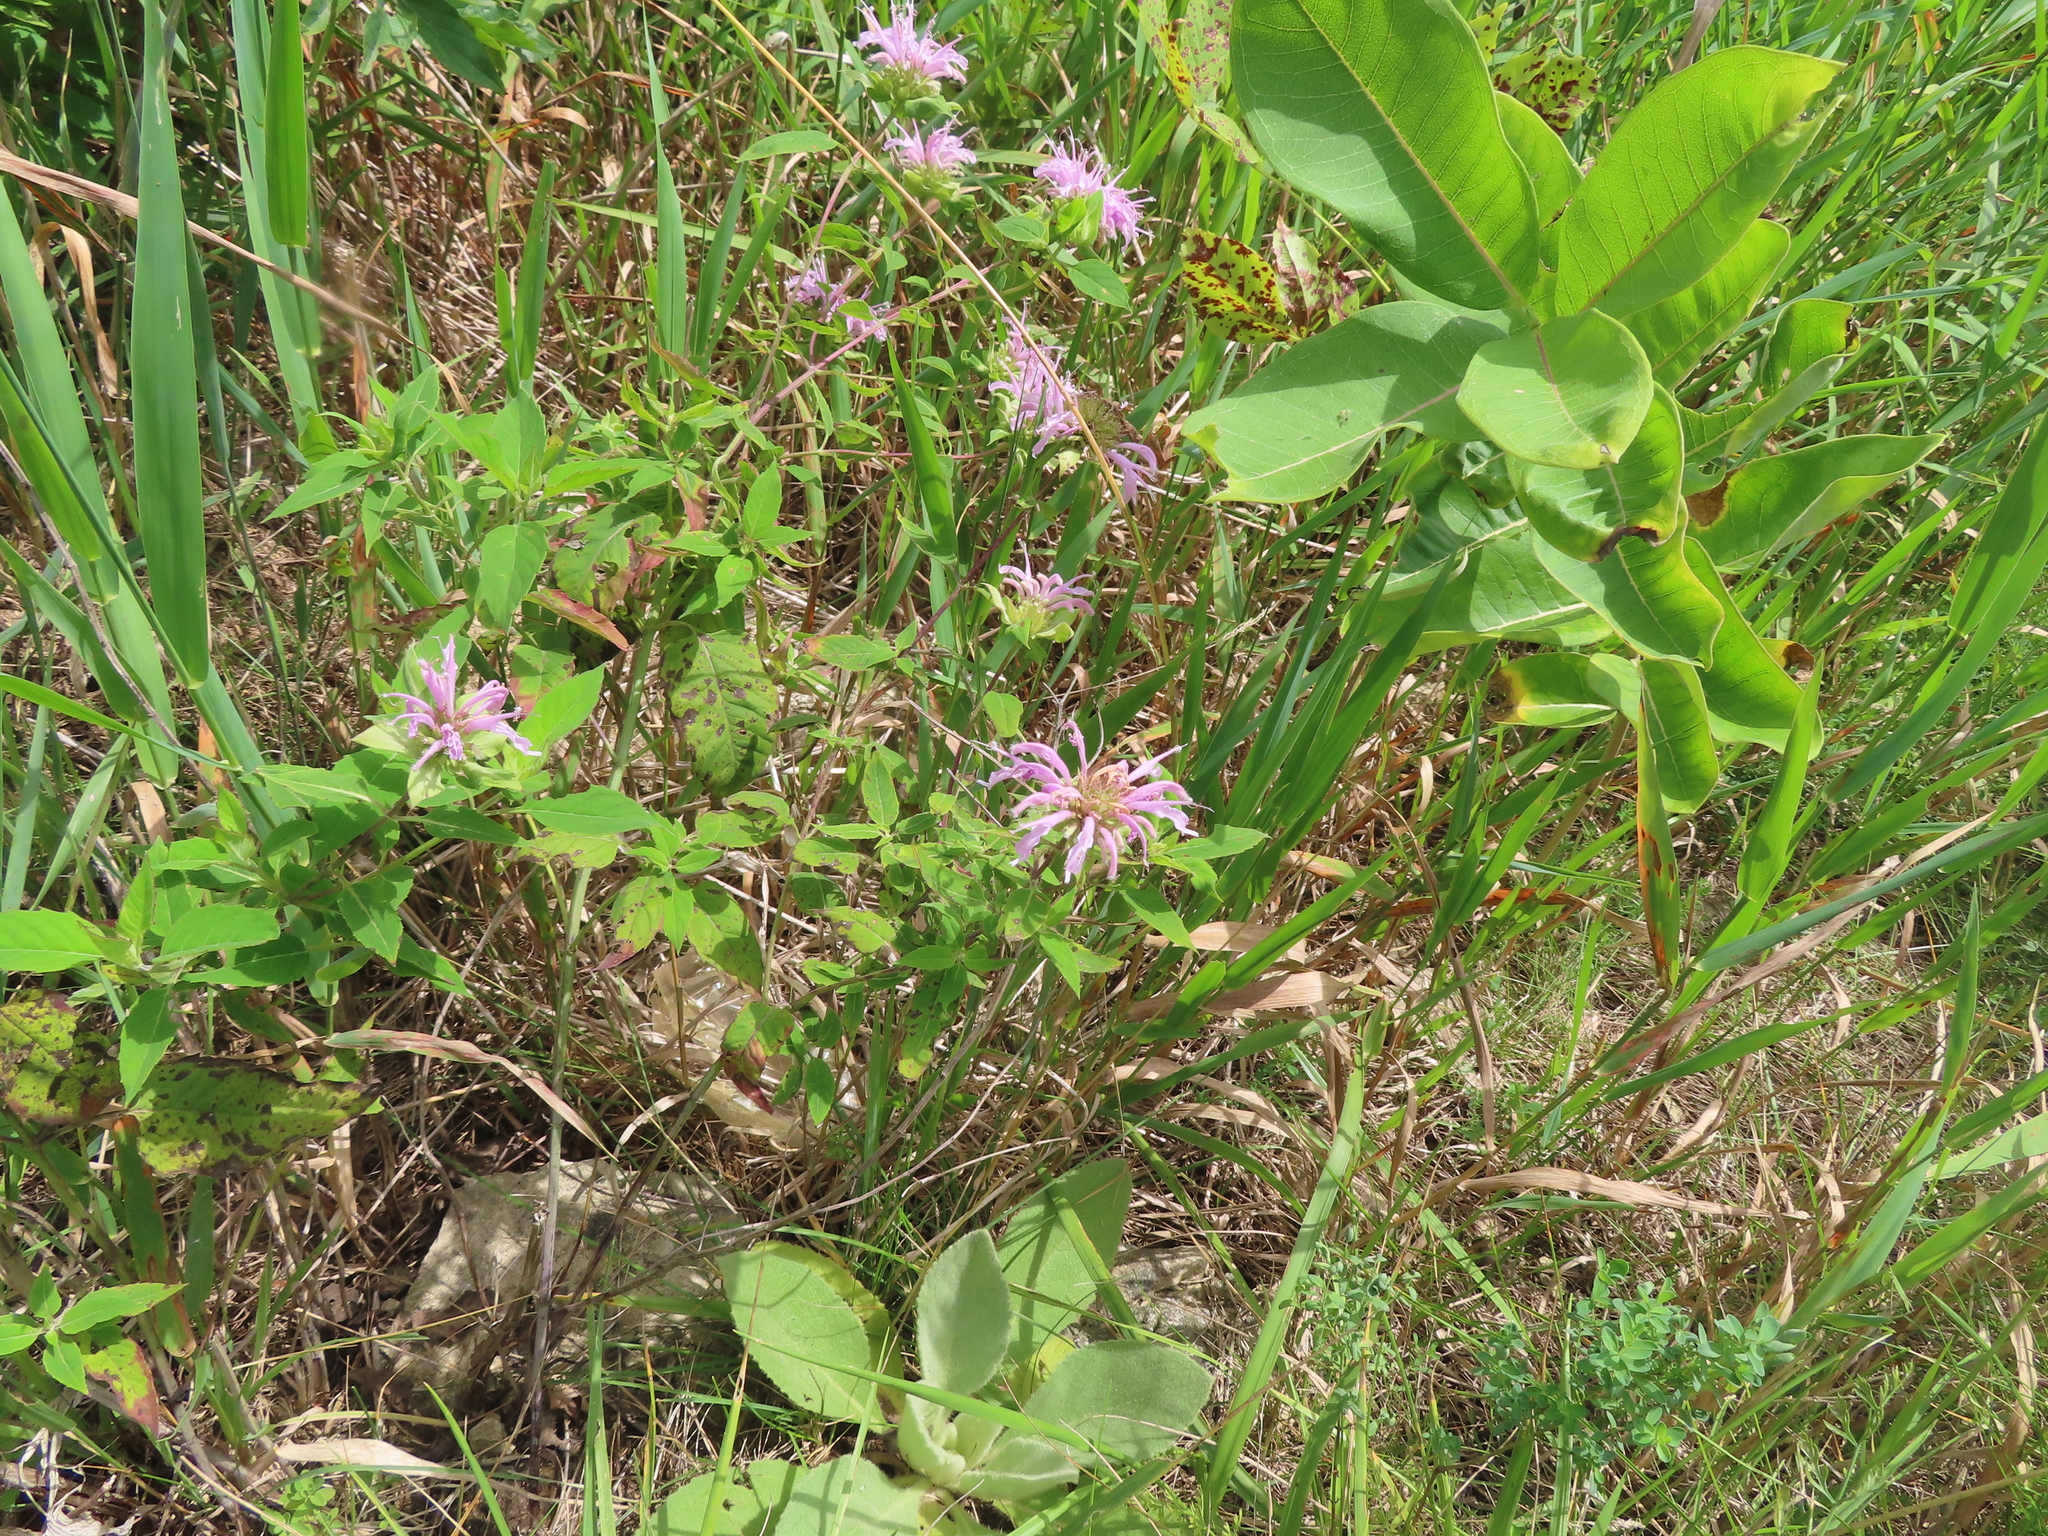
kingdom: Plantae
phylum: Tracheophyta
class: Magnoliopsida
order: Gentianales
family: Apocynaceae
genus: Asclepias
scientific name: Asclepias syriaca
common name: Common milkweed
